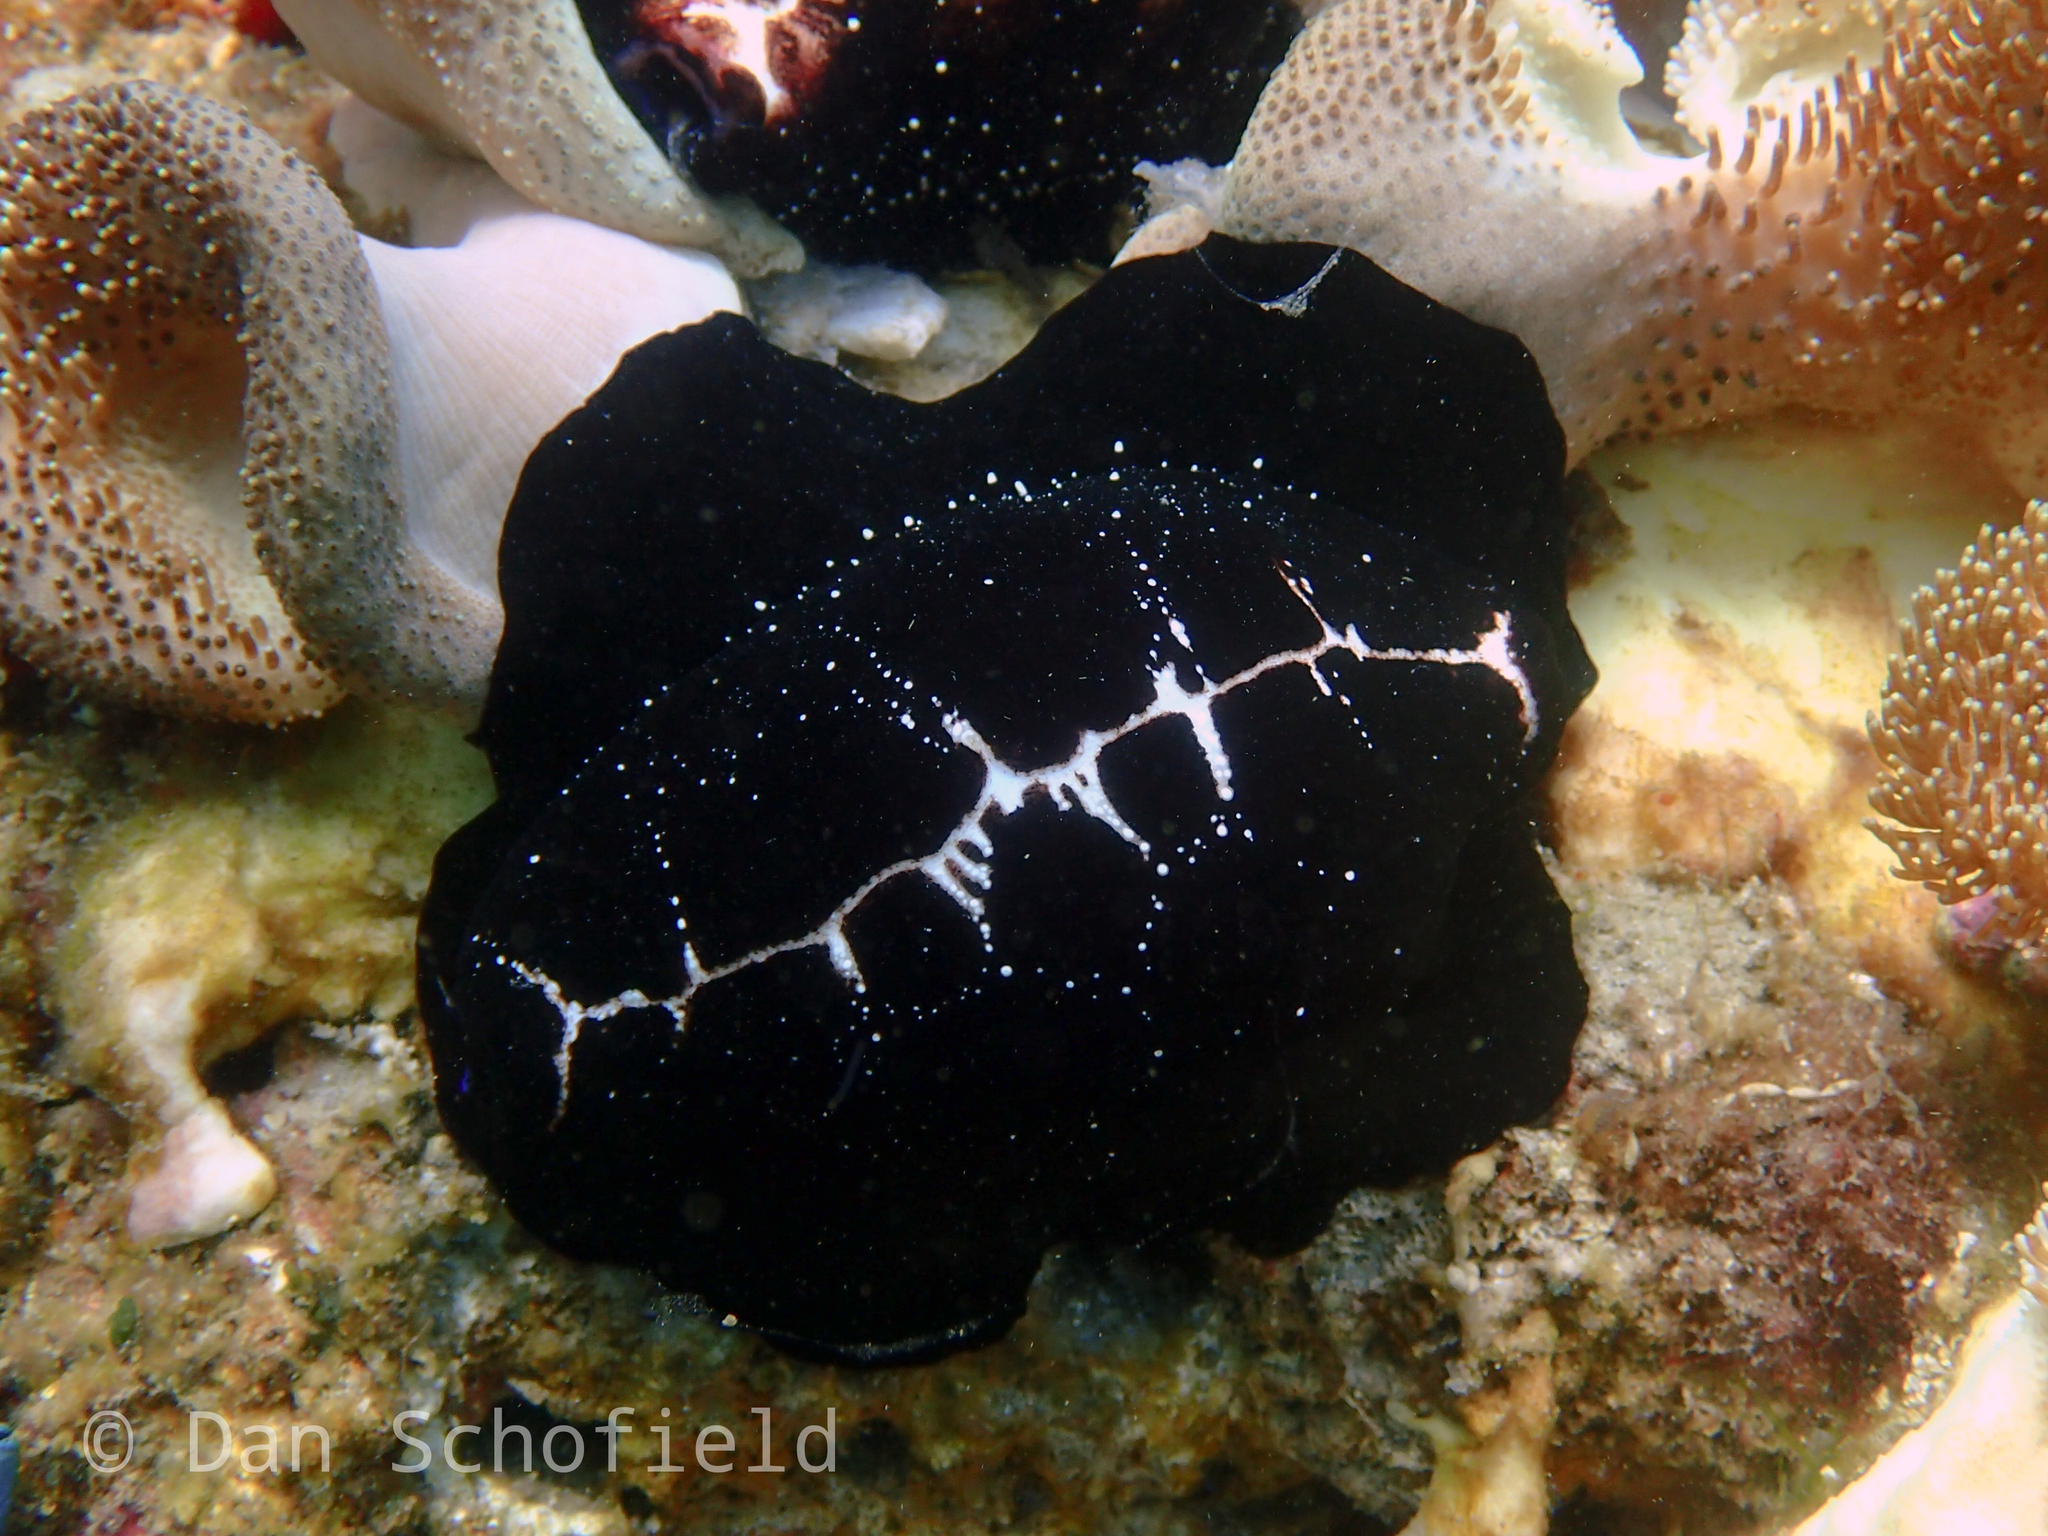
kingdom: Animalia
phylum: Mollusca
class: Gastropoda
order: Littorinimorpha
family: Ovulidae
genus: Ovula
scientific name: Ovula ovum
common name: Common egg cowrie
